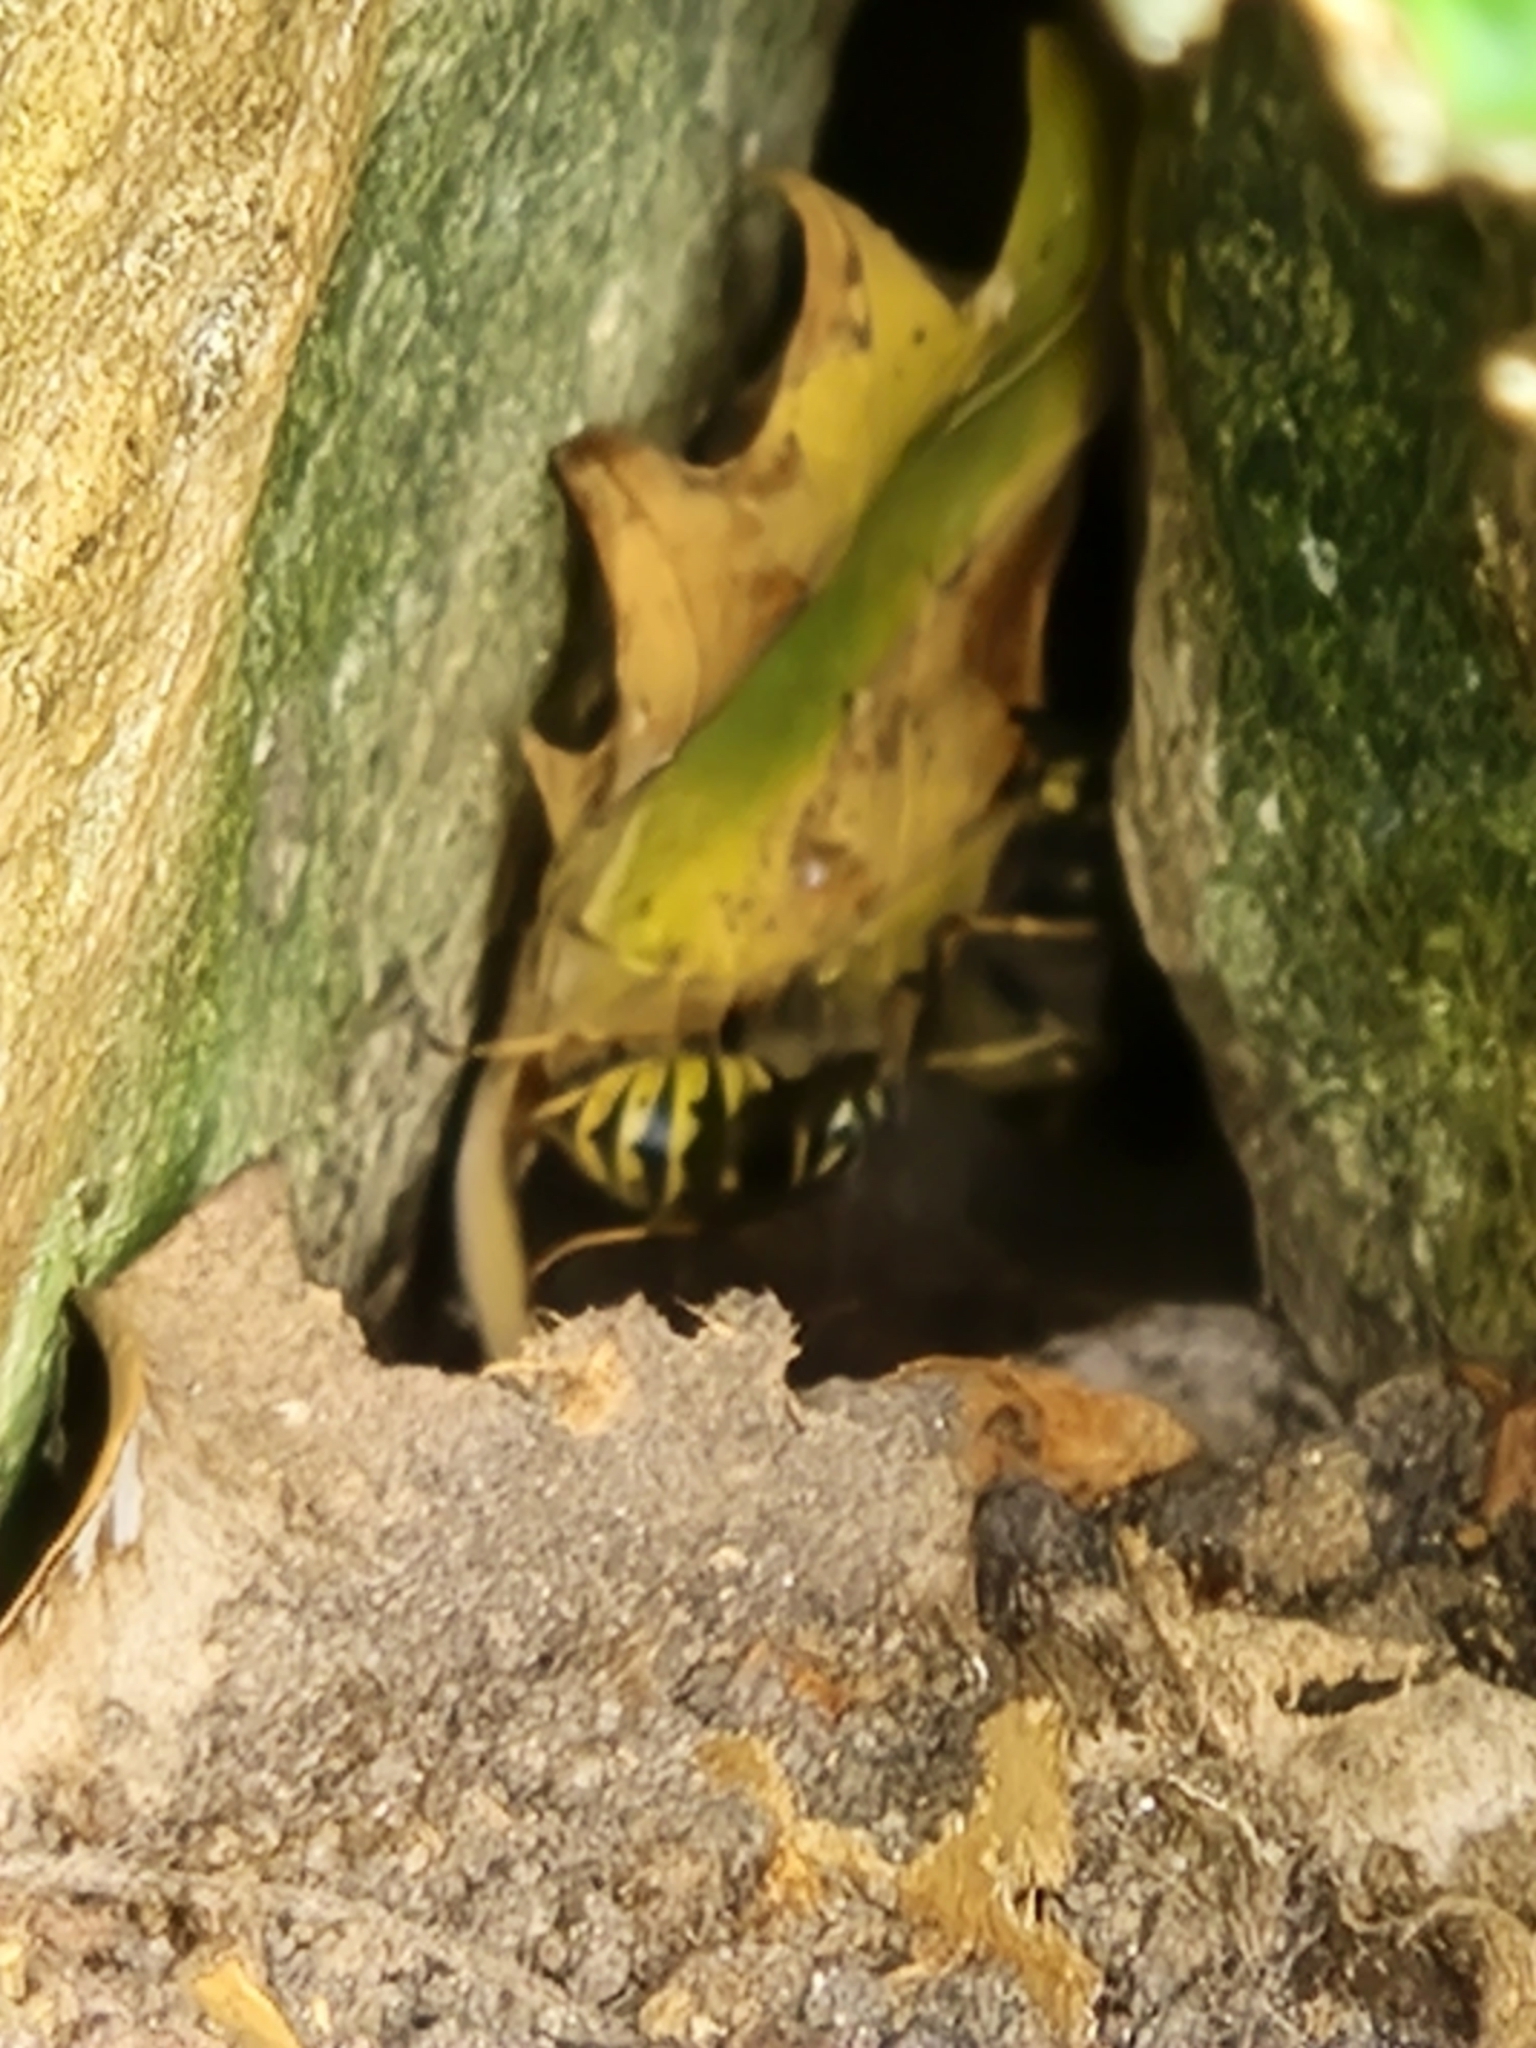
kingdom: Animalia
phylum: Arthropoda
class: Insecta
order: Hymenoptera
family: Vespidae
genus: Vespula
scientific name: Vespula vulgaris
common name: Common wasp
